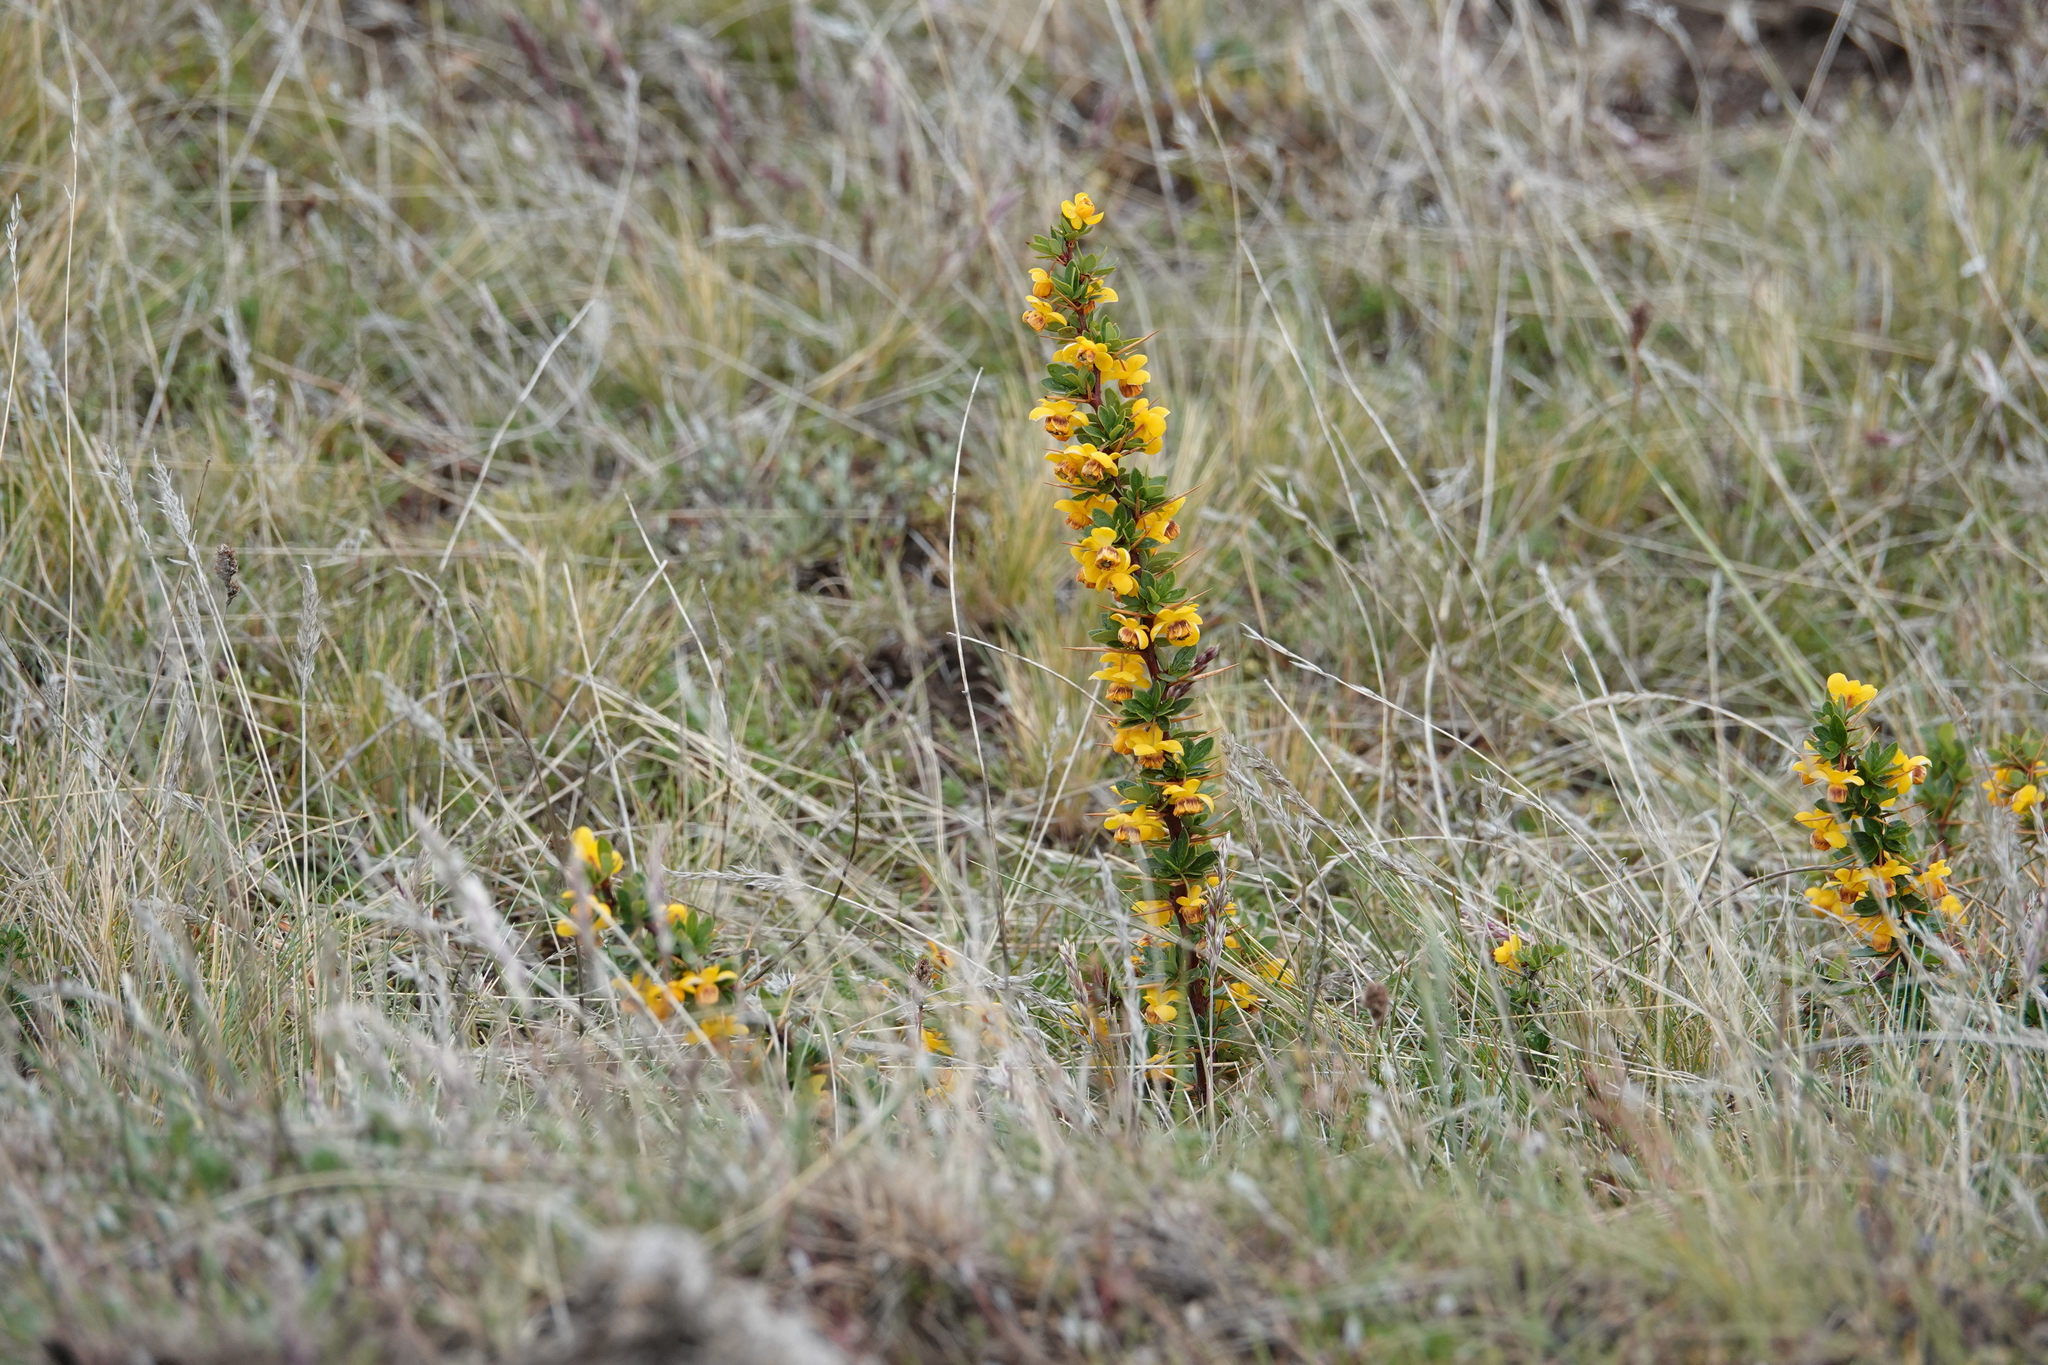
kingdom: Plantae
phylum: Tracheophyta
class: Magnoliopsida
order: Ranunculales
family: Berberidaceae
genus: Berberis
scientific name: Berberis microphylla
